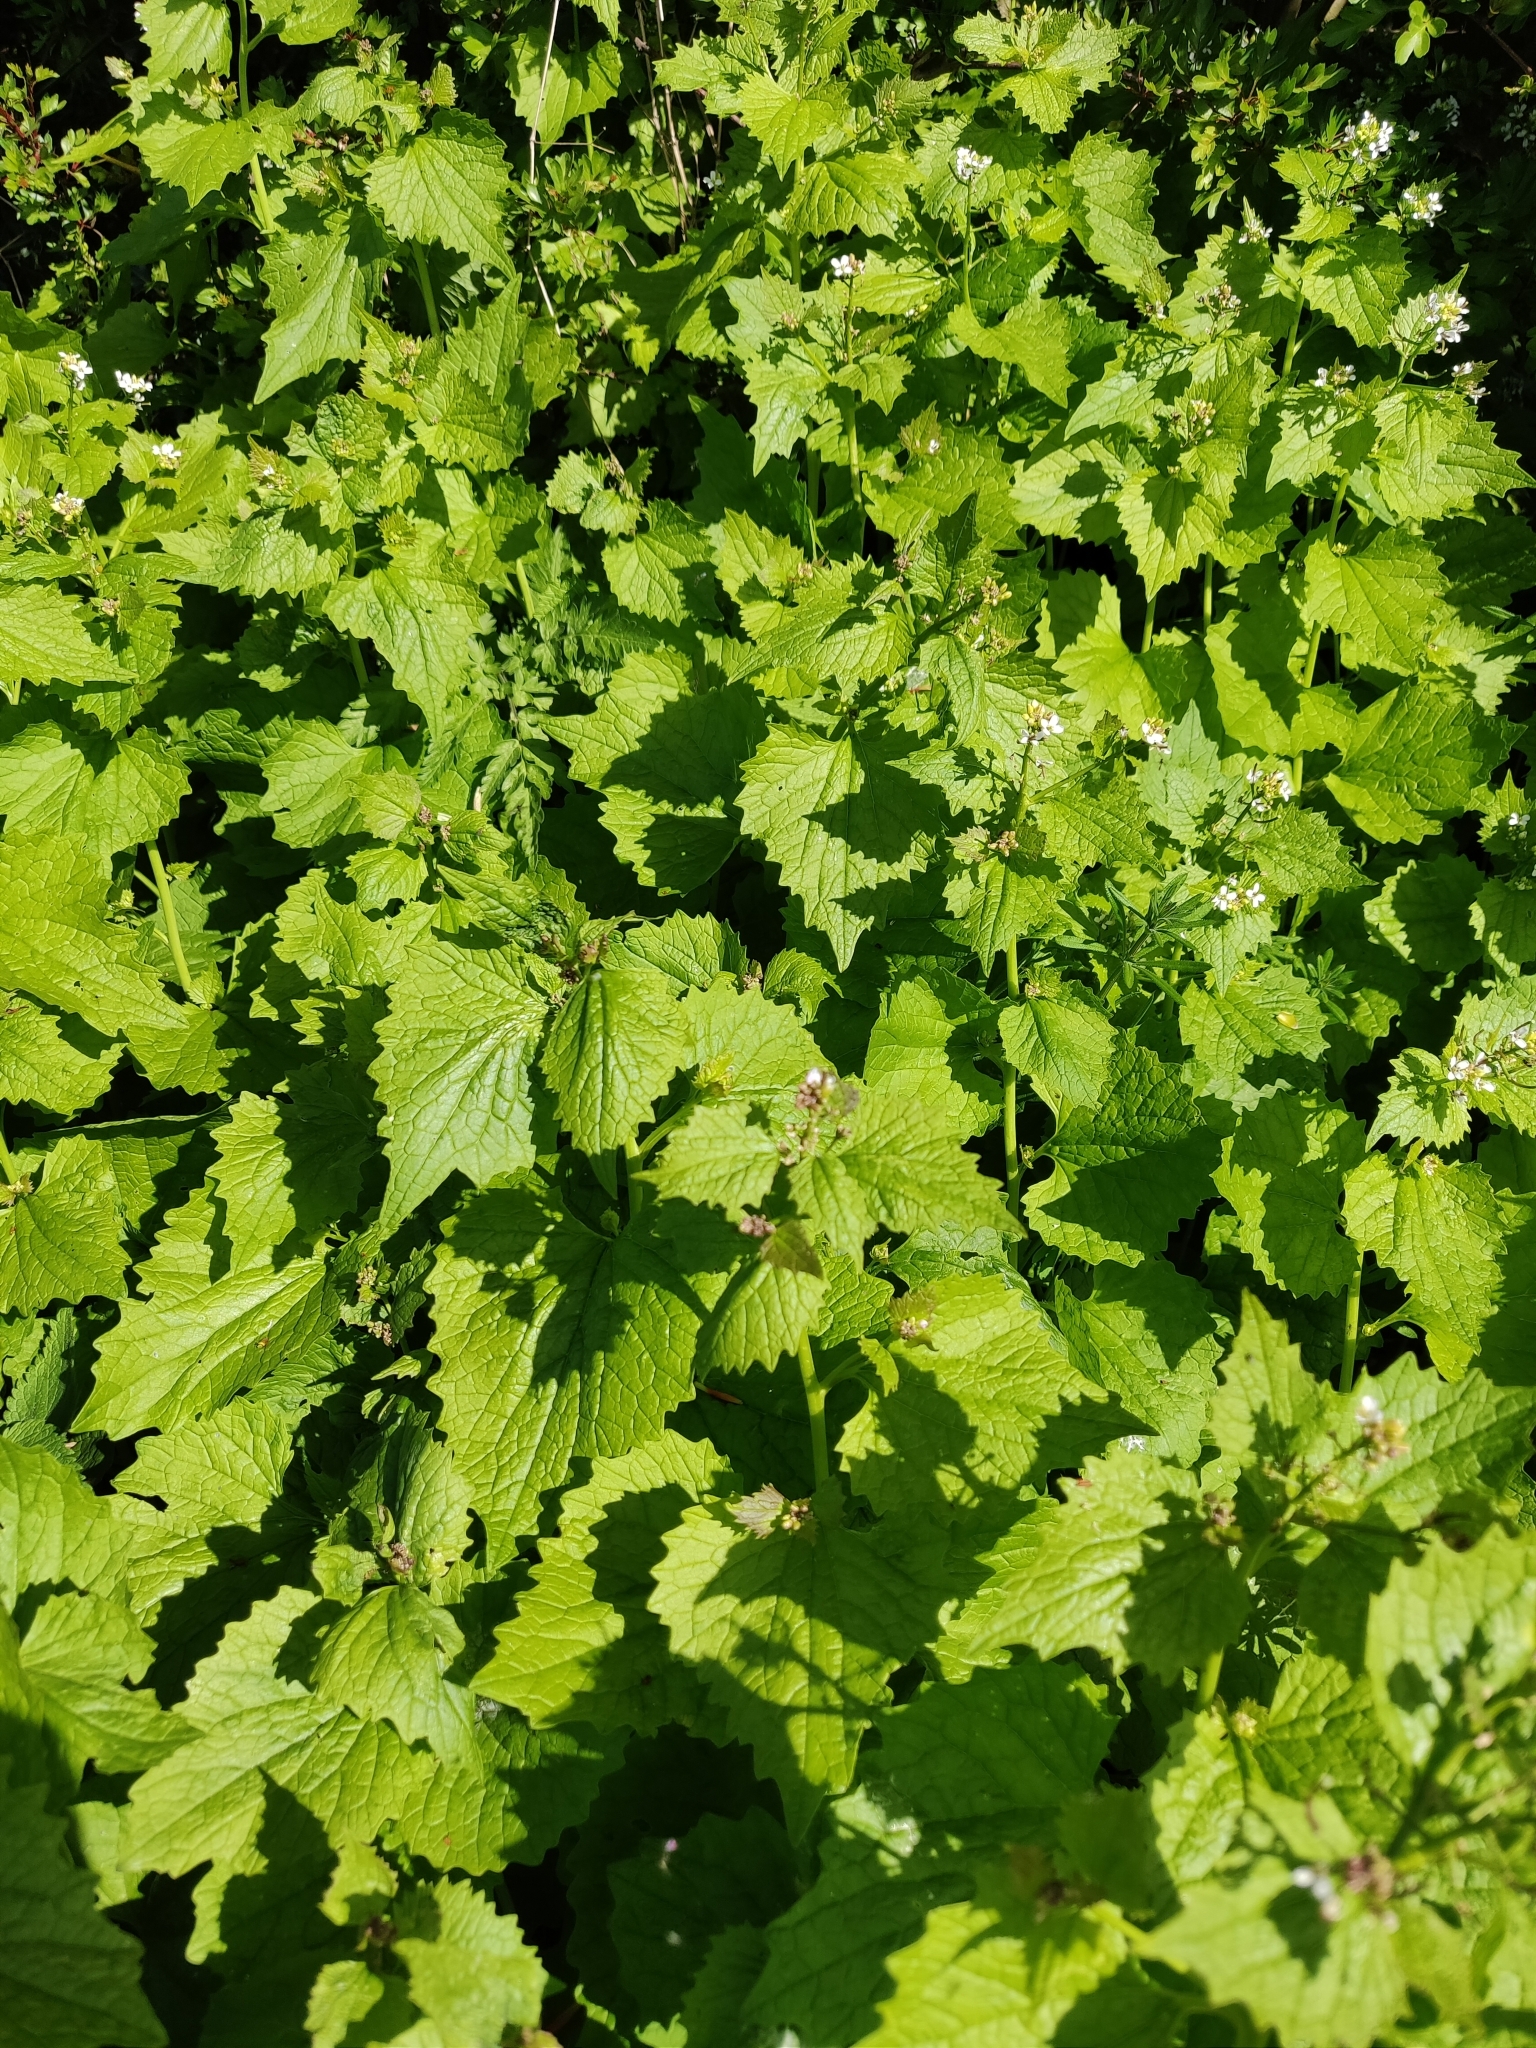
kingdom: Plantae
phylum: Tracheophyta
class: Magnoliopsida
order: Brassicales
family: Brassicaceae
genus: Alliaria
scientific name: Alliaria petiolata
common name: Garlic mustard
